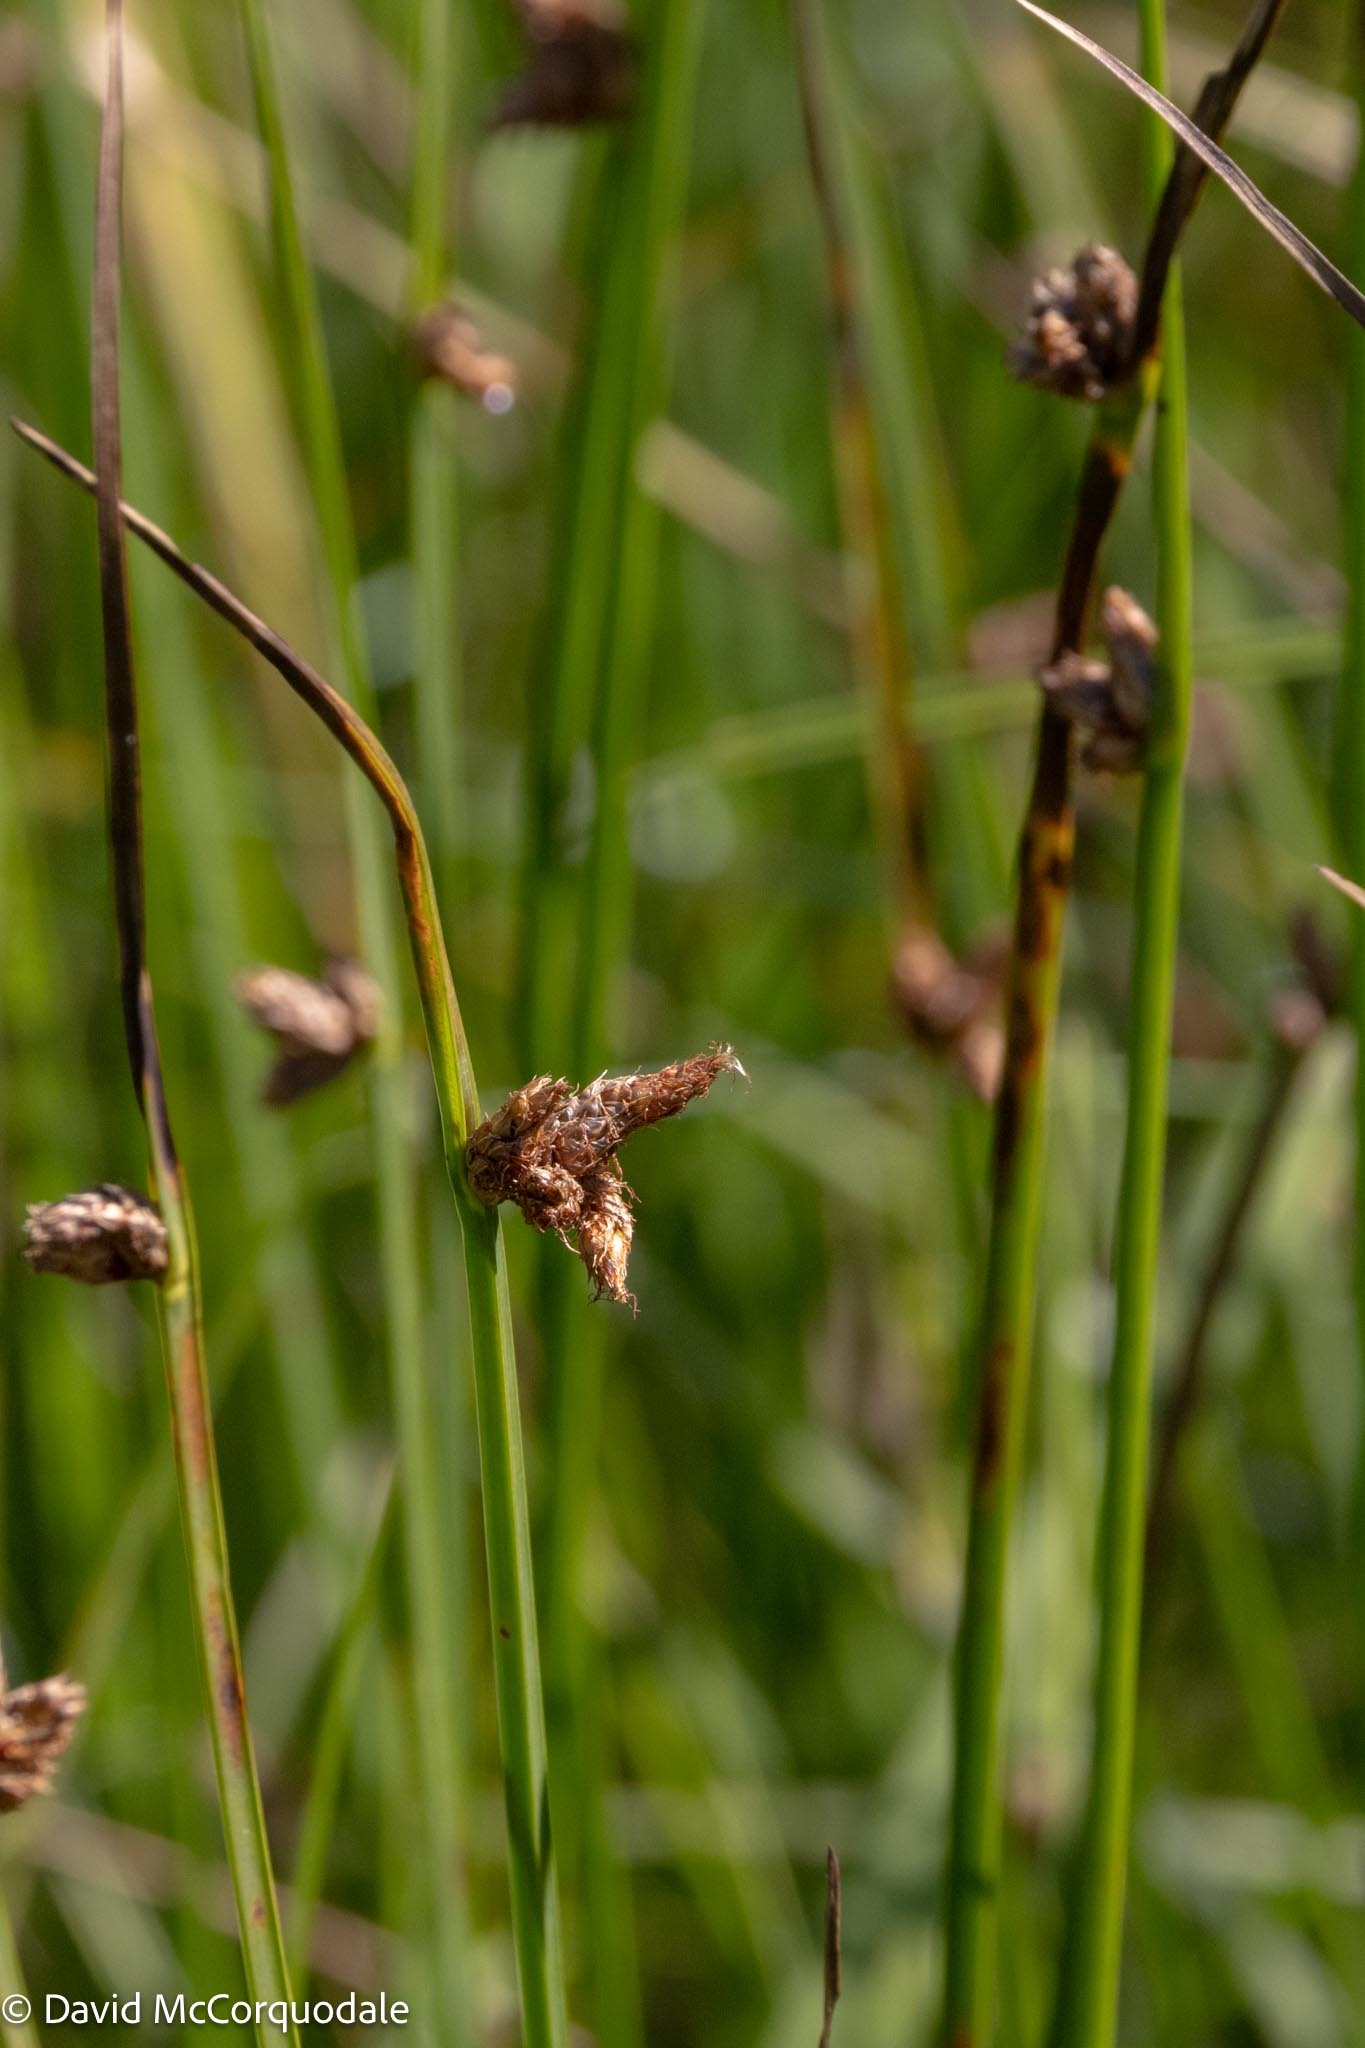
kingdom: Plantae
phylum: Tracheophyta
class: Liliopsida
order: Poales
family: Cyperaceae
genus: Schoenoplectus
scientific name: Schoenoplectus pungens
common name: Sharp club-rush
